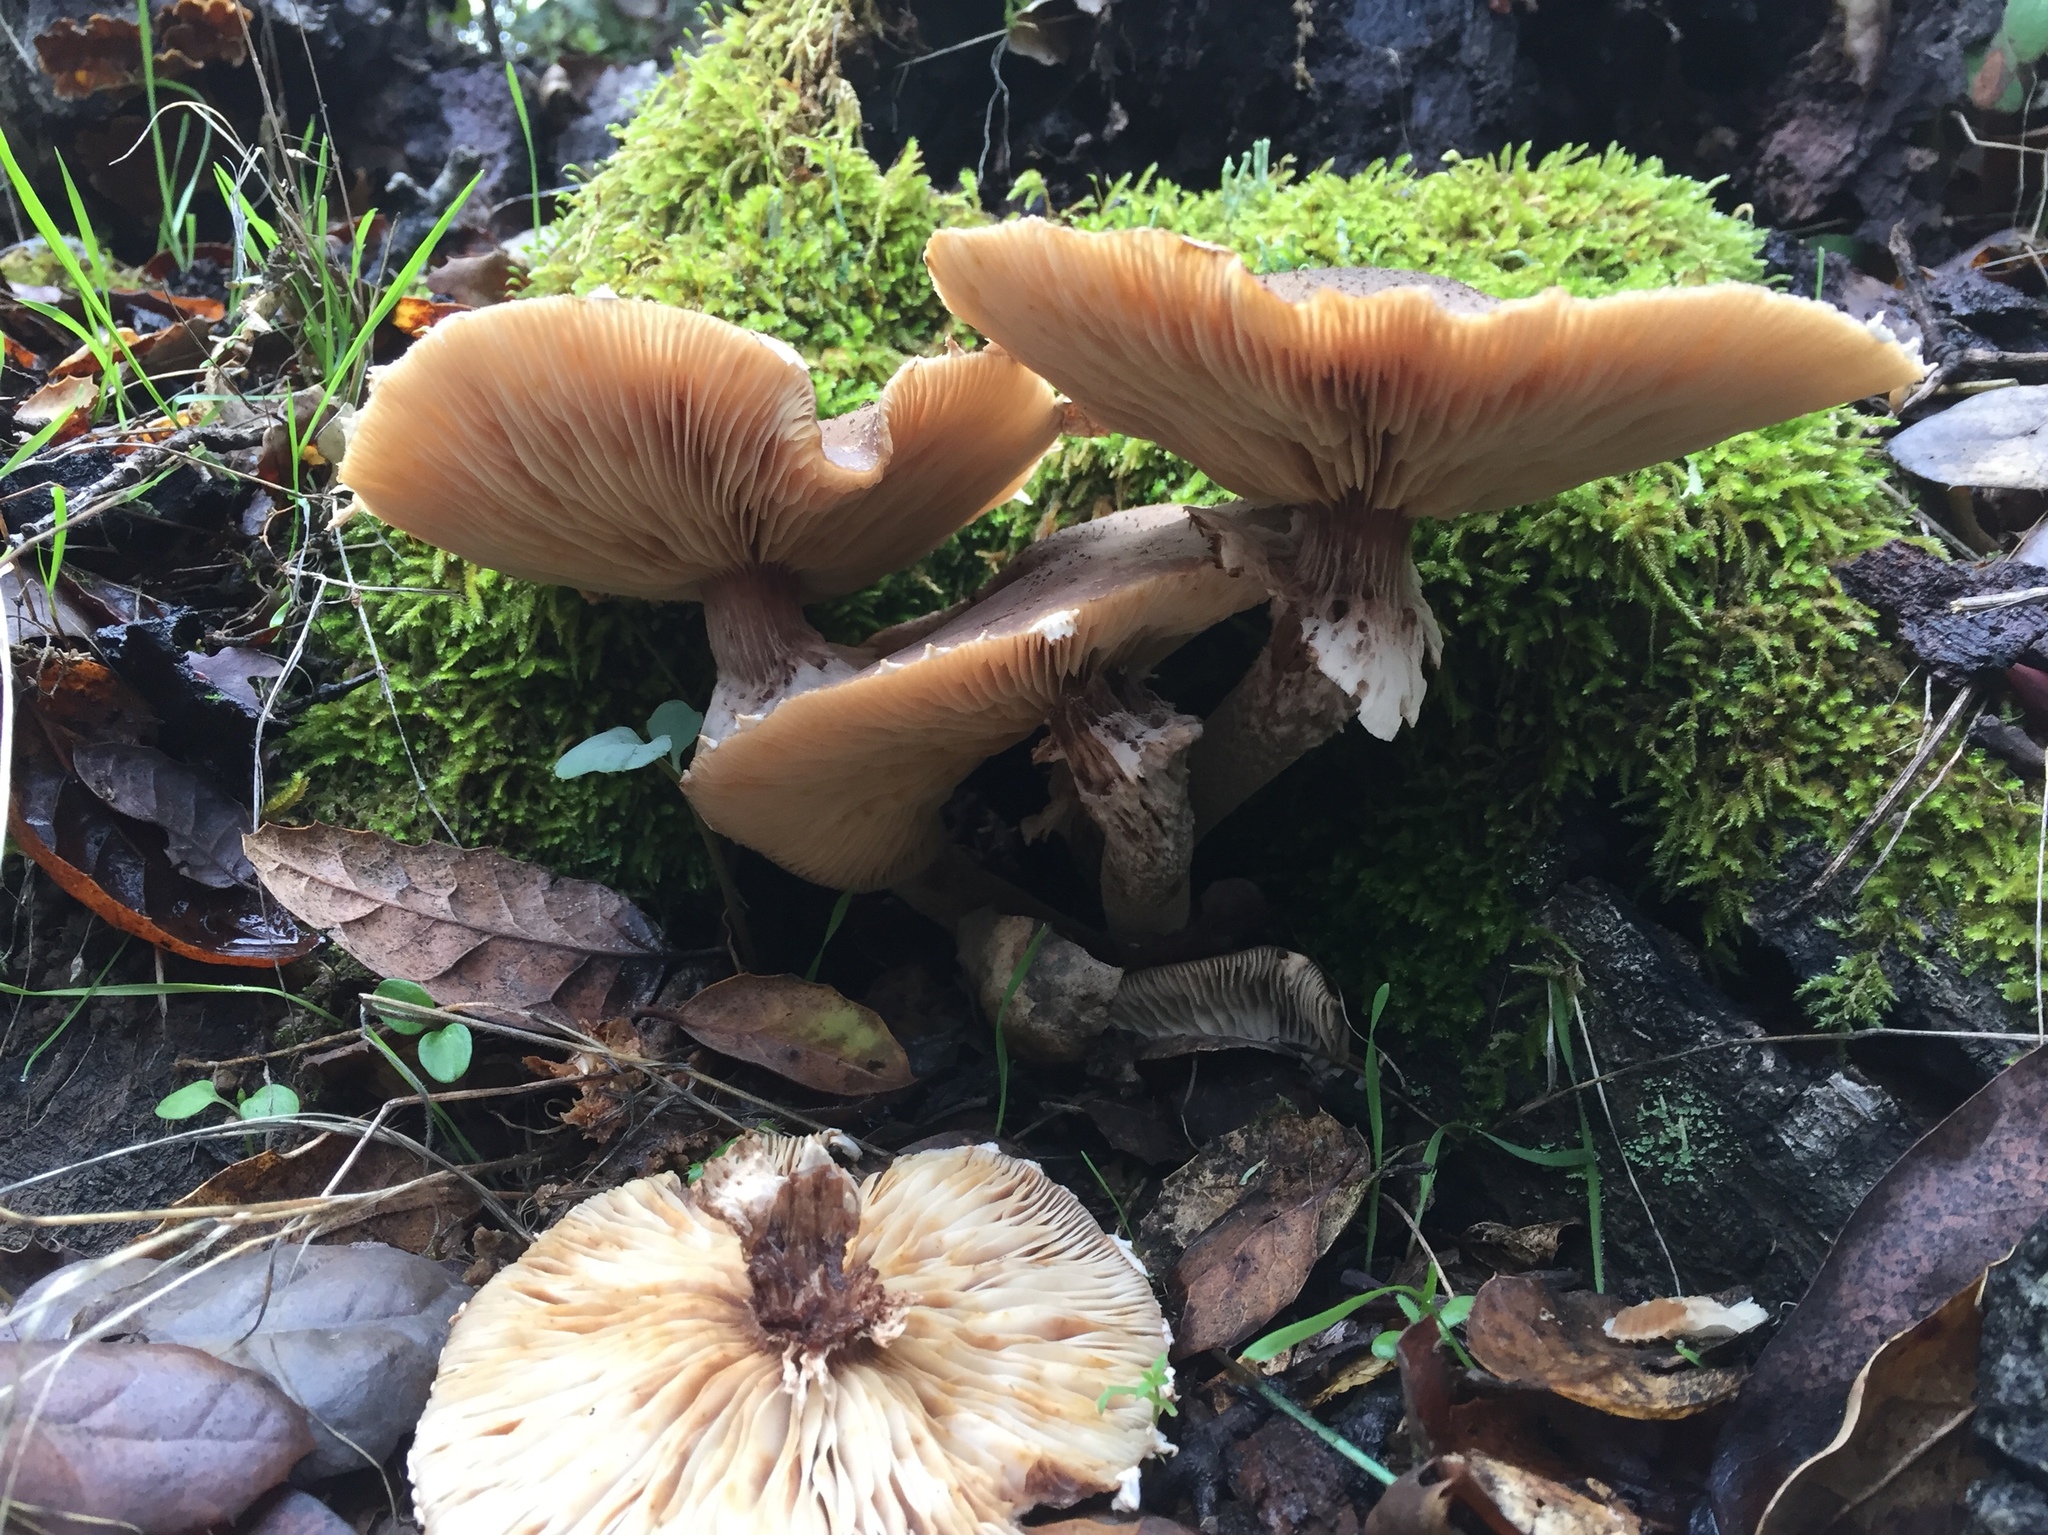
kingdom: Fungi
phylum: Basidiomycota
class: Agaricomycetes
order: Agaricales
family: Physalacriaceae
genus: Armillaria
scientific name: Armillaria mellea
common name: Honey fungus
